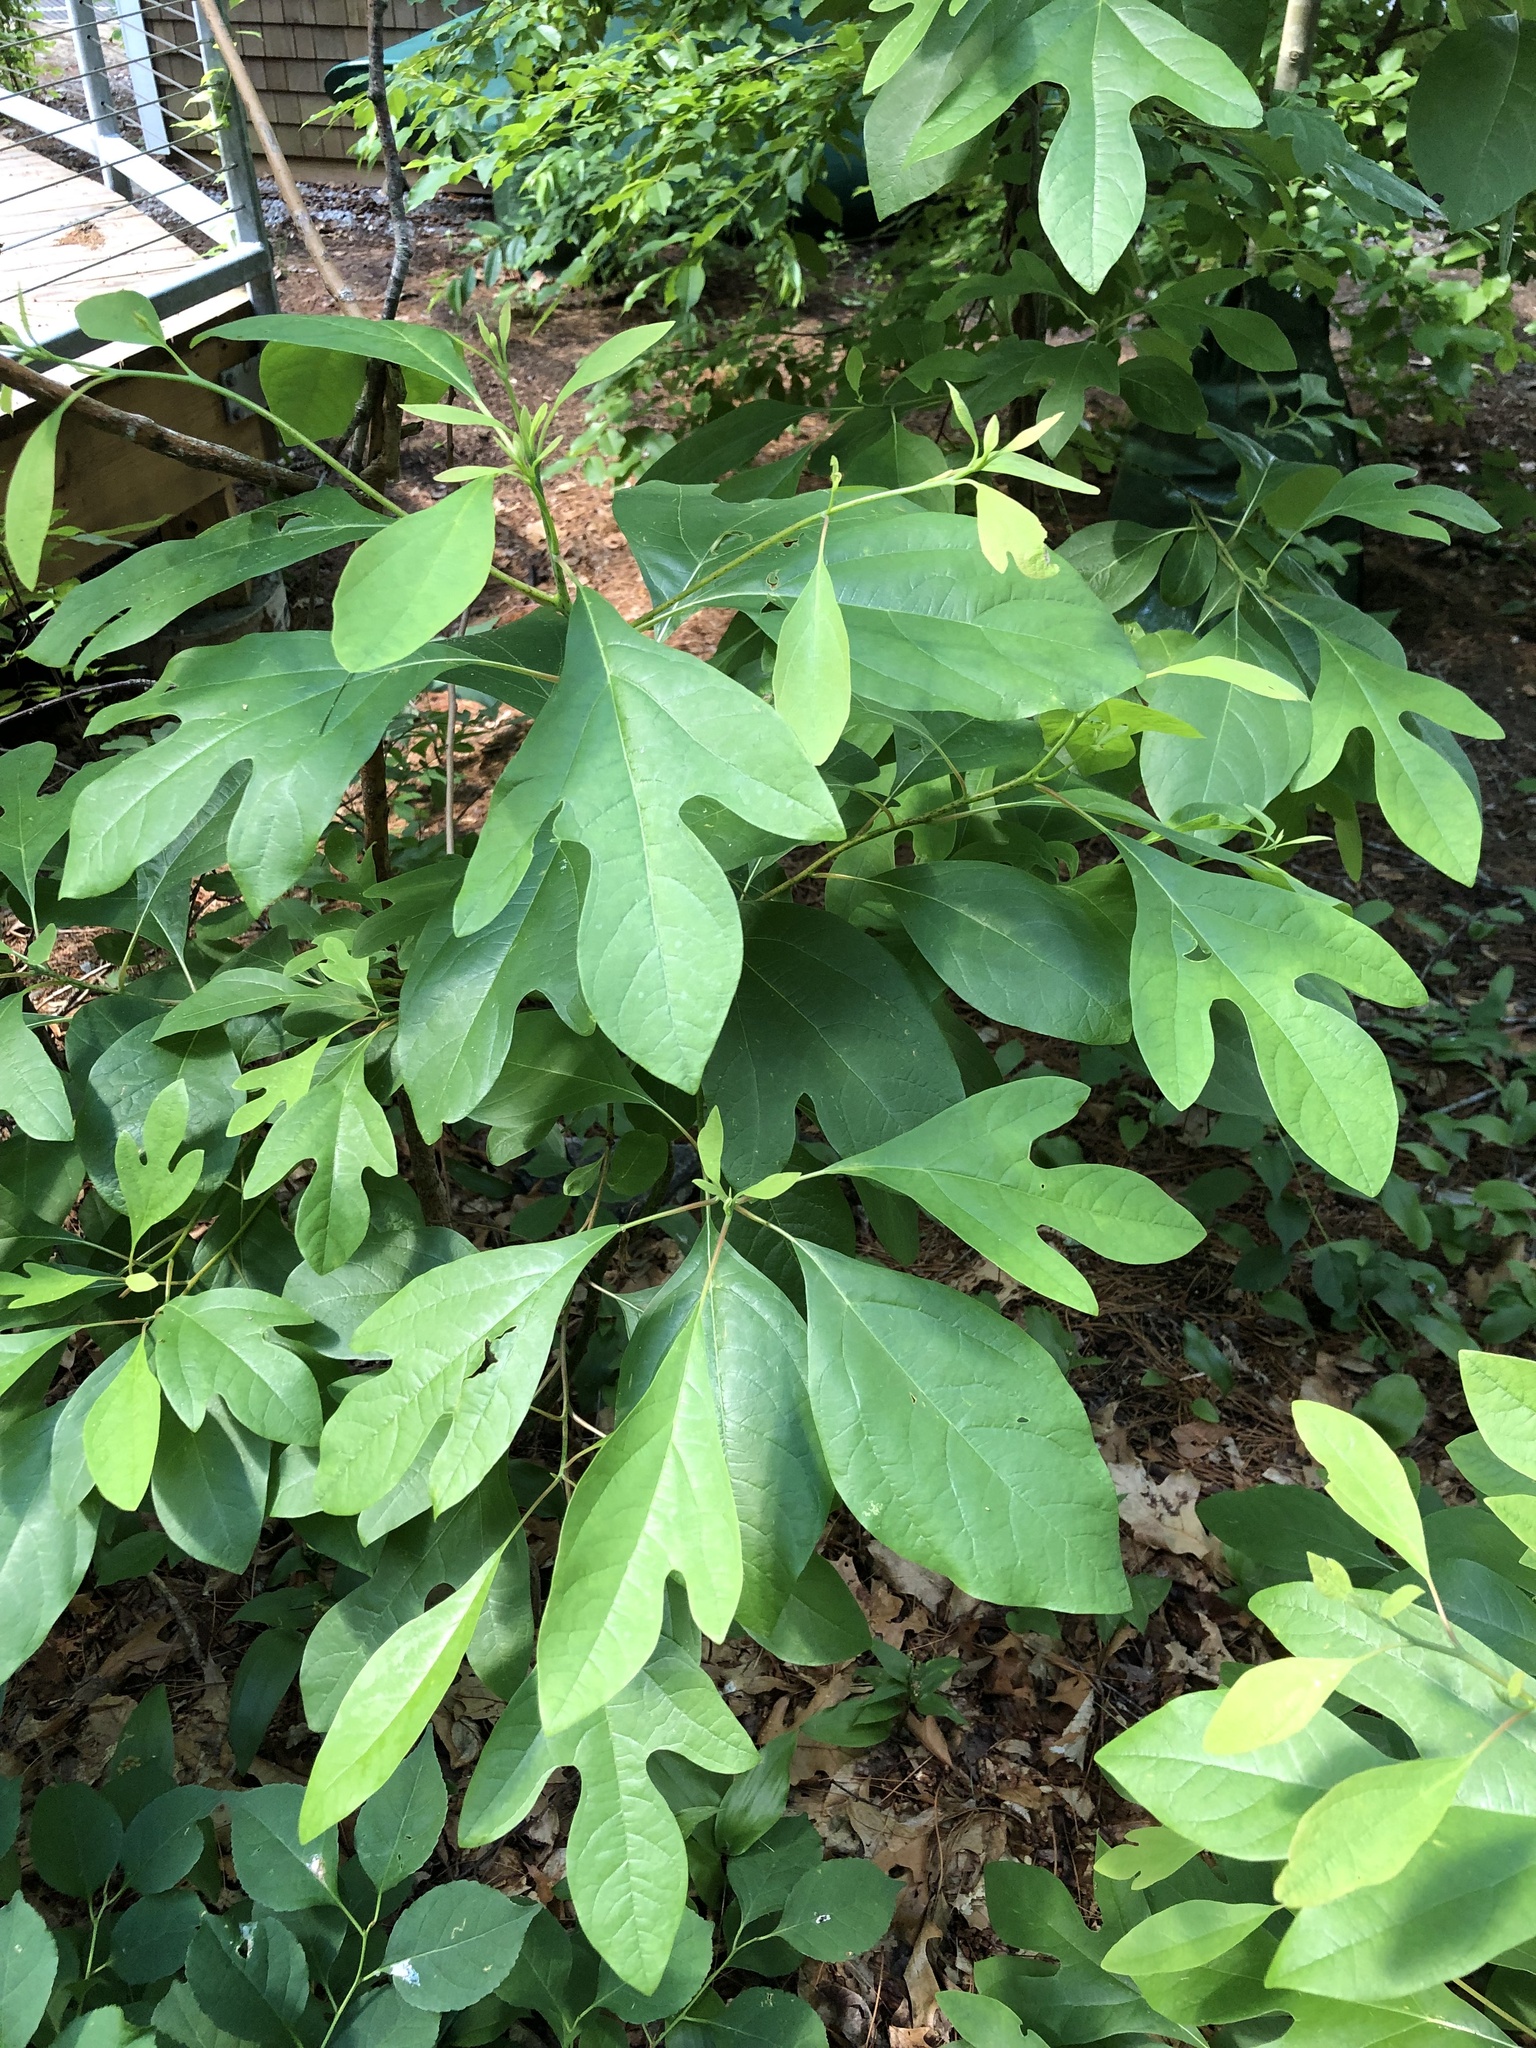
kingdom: Plantae
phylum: Tracheophyta
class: Magnoliopsida
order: Laurales
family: Lauraceae
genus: Sassafras
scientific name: Sassafras albidum
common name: Sassafras
